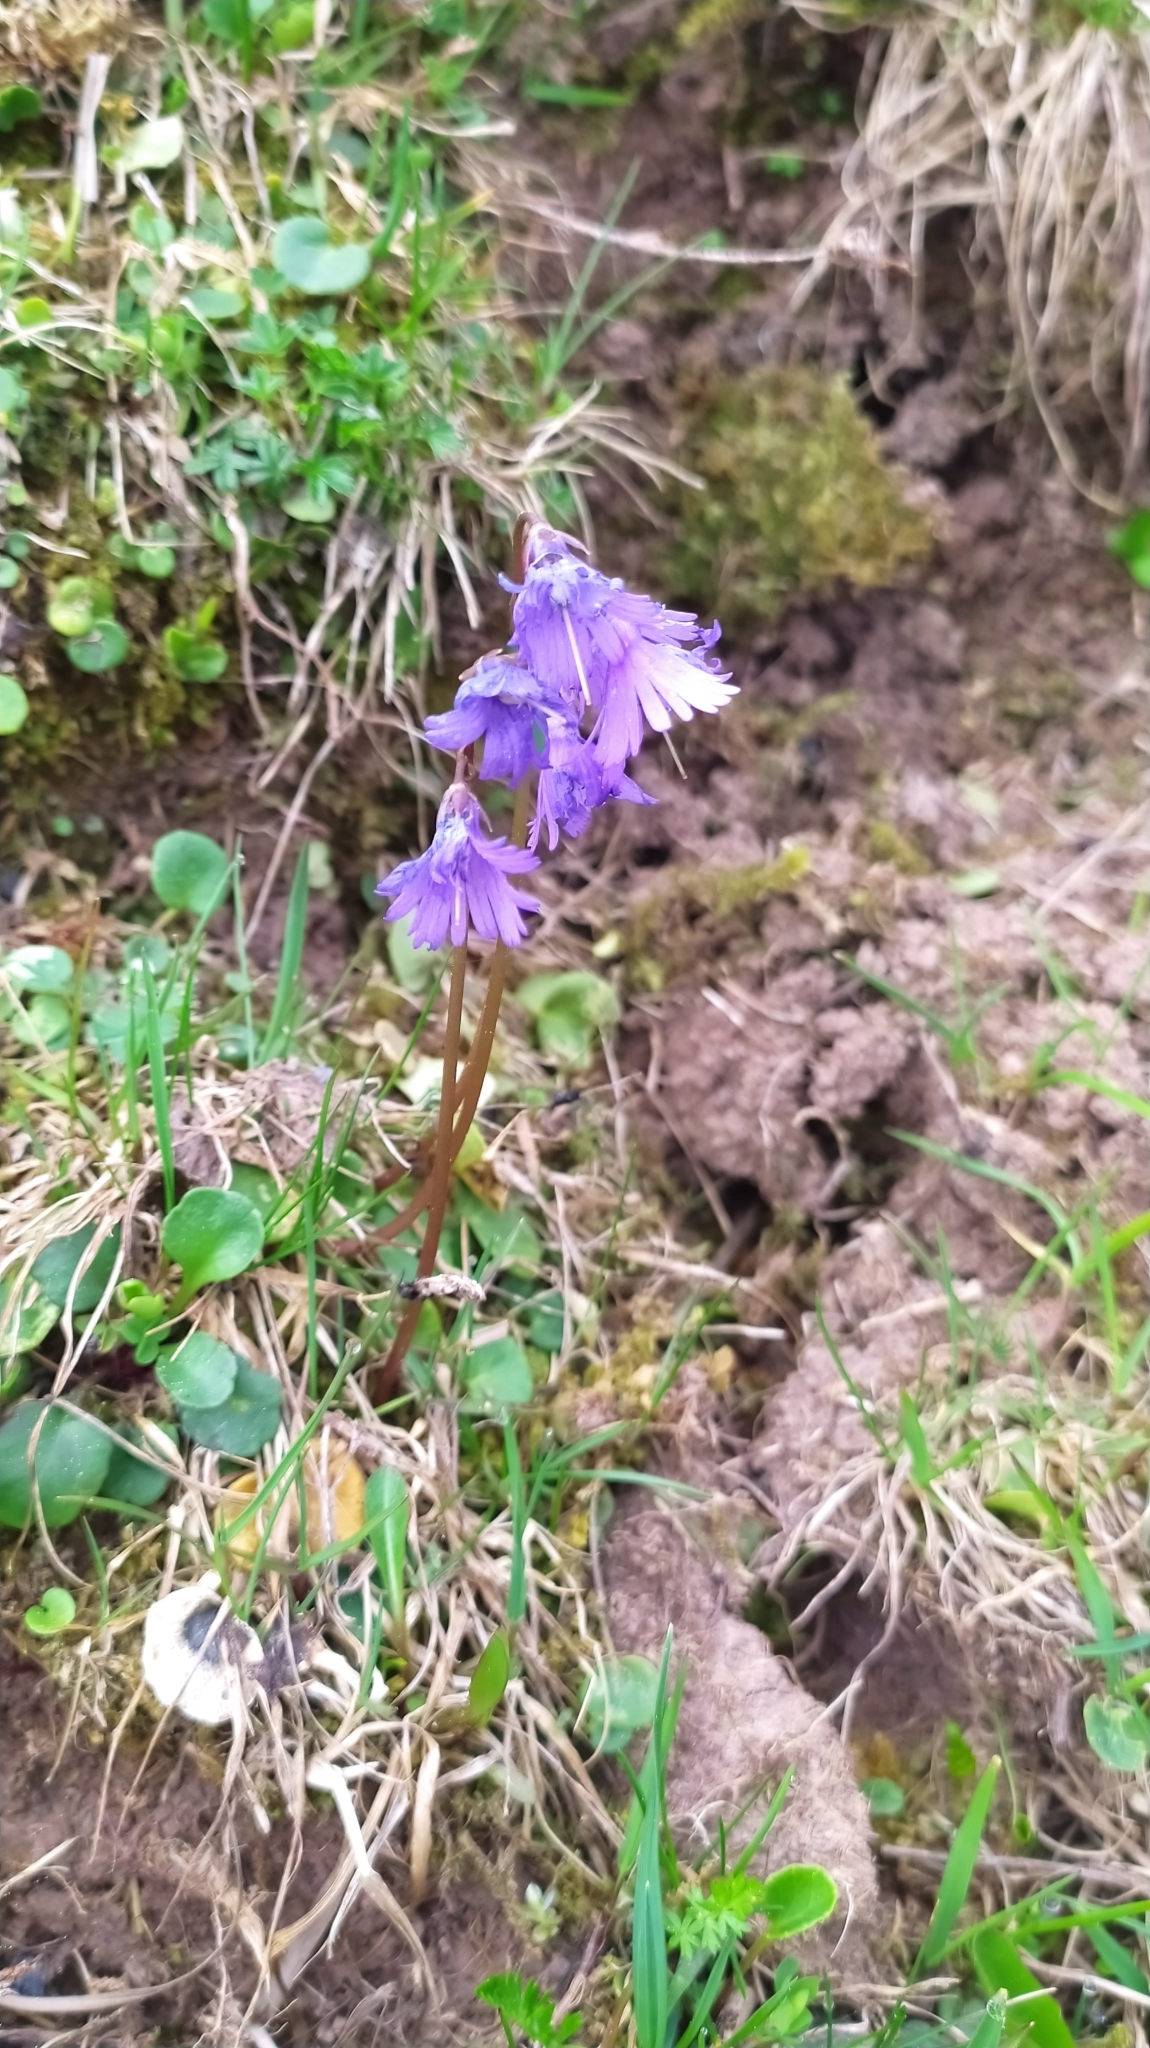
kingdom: Plantae
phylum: Tracheophyta
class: Magnoliopsida
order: Ericales
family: Primulaceae
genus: Soldanella
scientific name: Soldanella alpina
